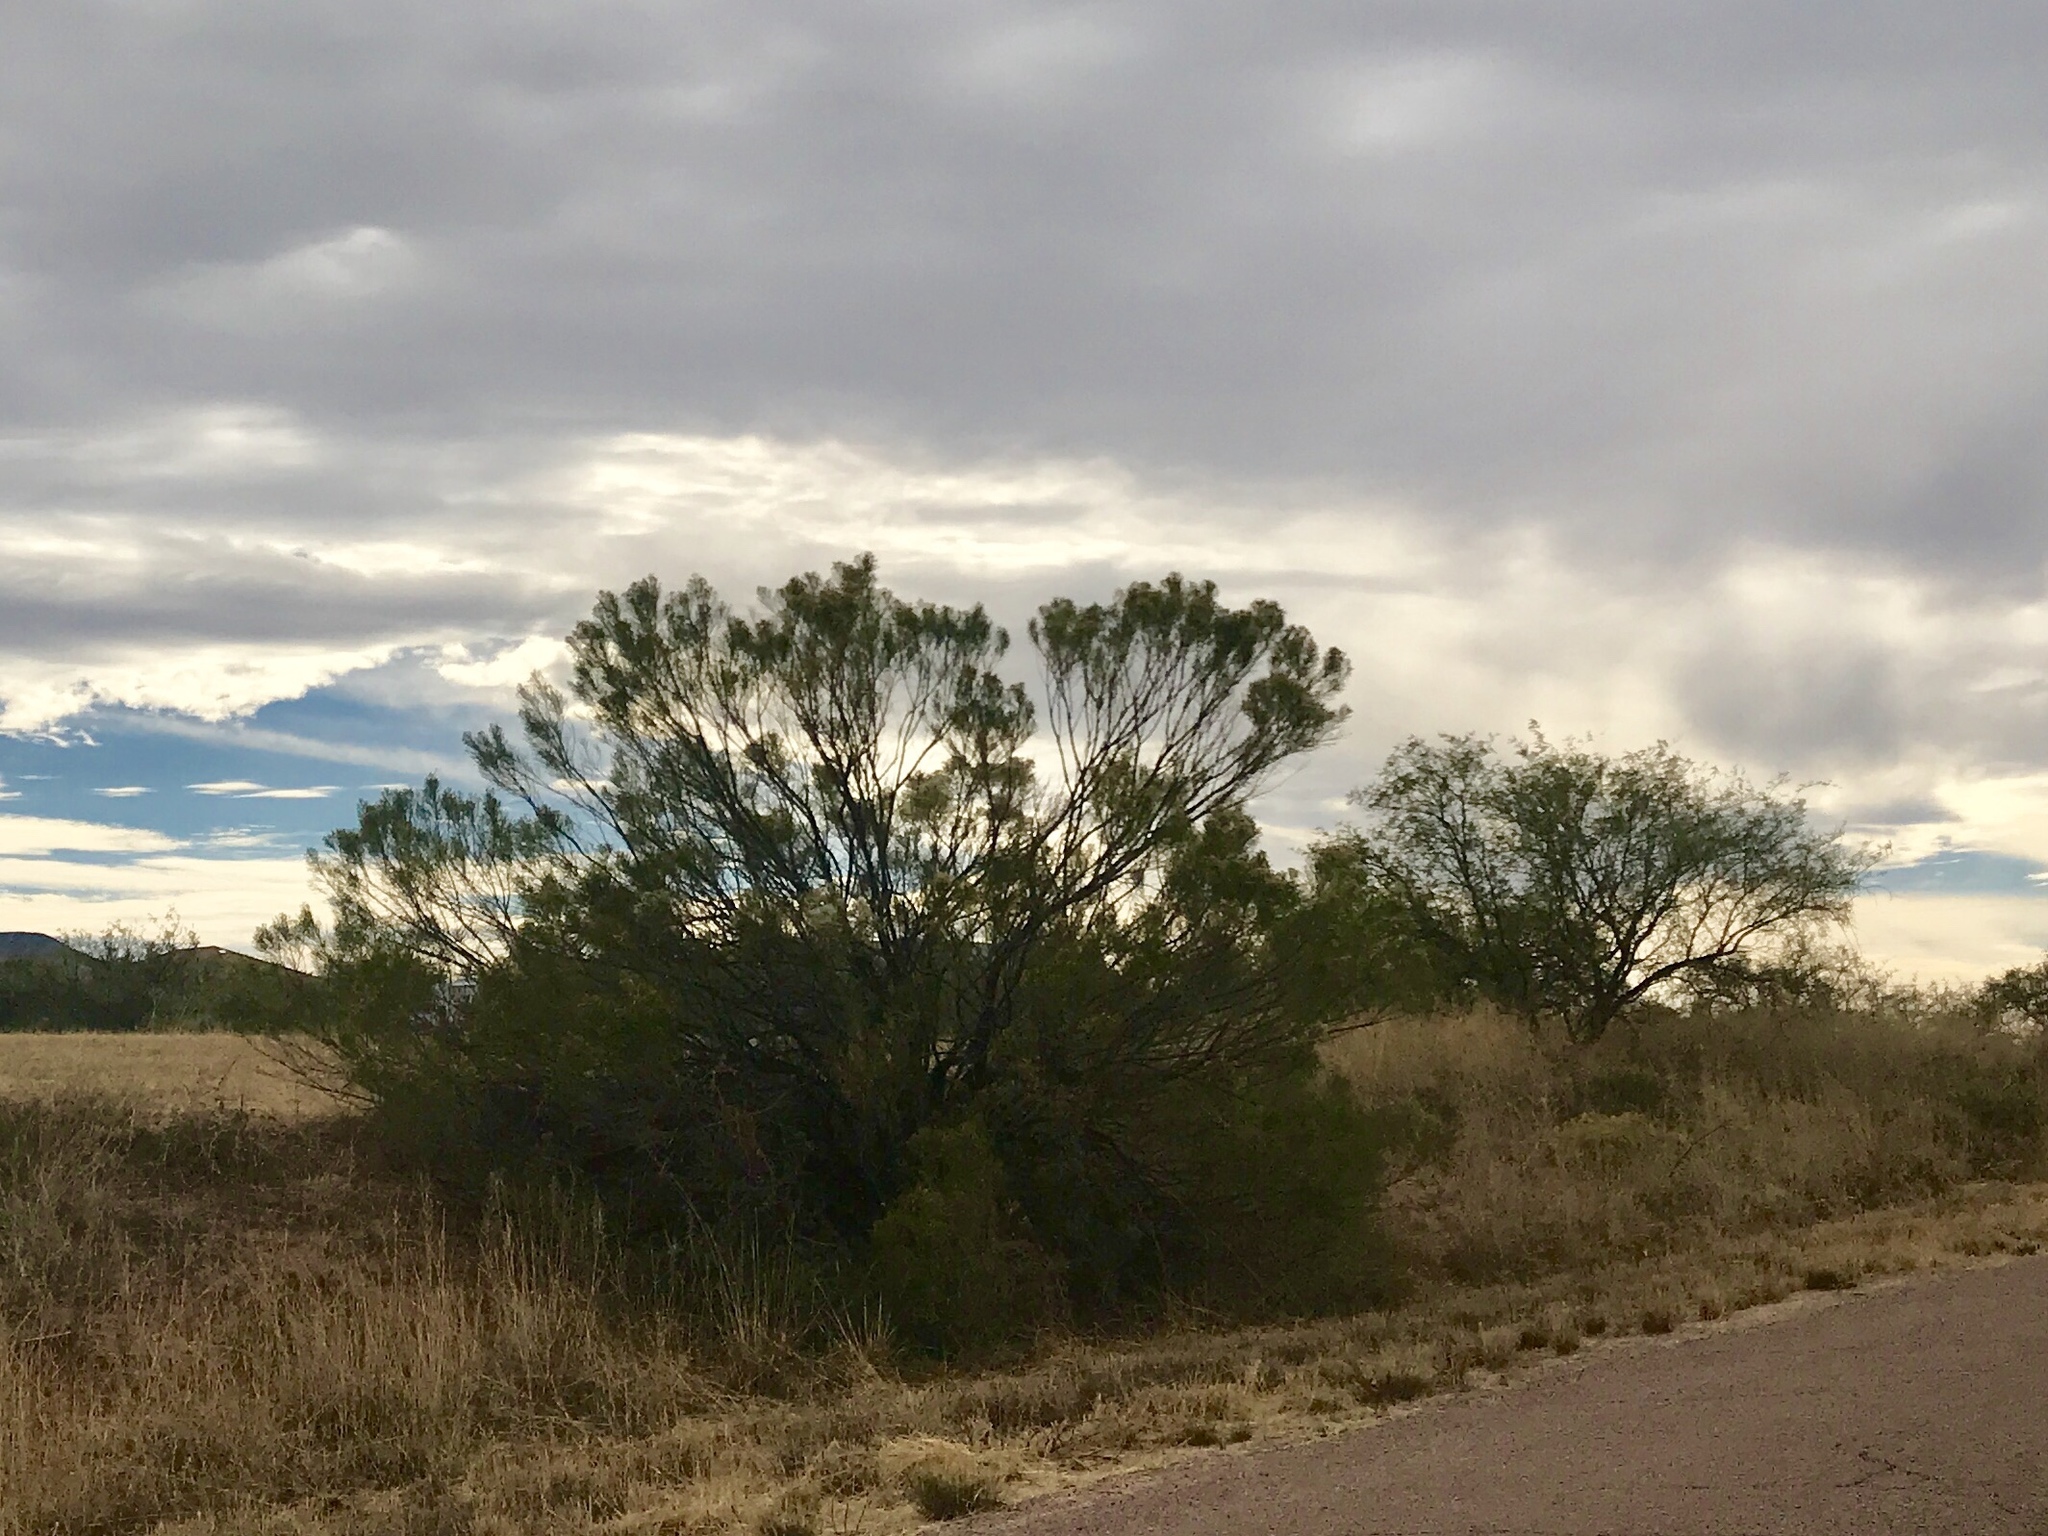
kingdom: Plantae
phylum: Tracheophyta
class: Magnoliopsida
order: Asterales
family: Asteraceae
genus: Baccharis
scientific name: Baccharis sarothroides
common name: Desert-broom
